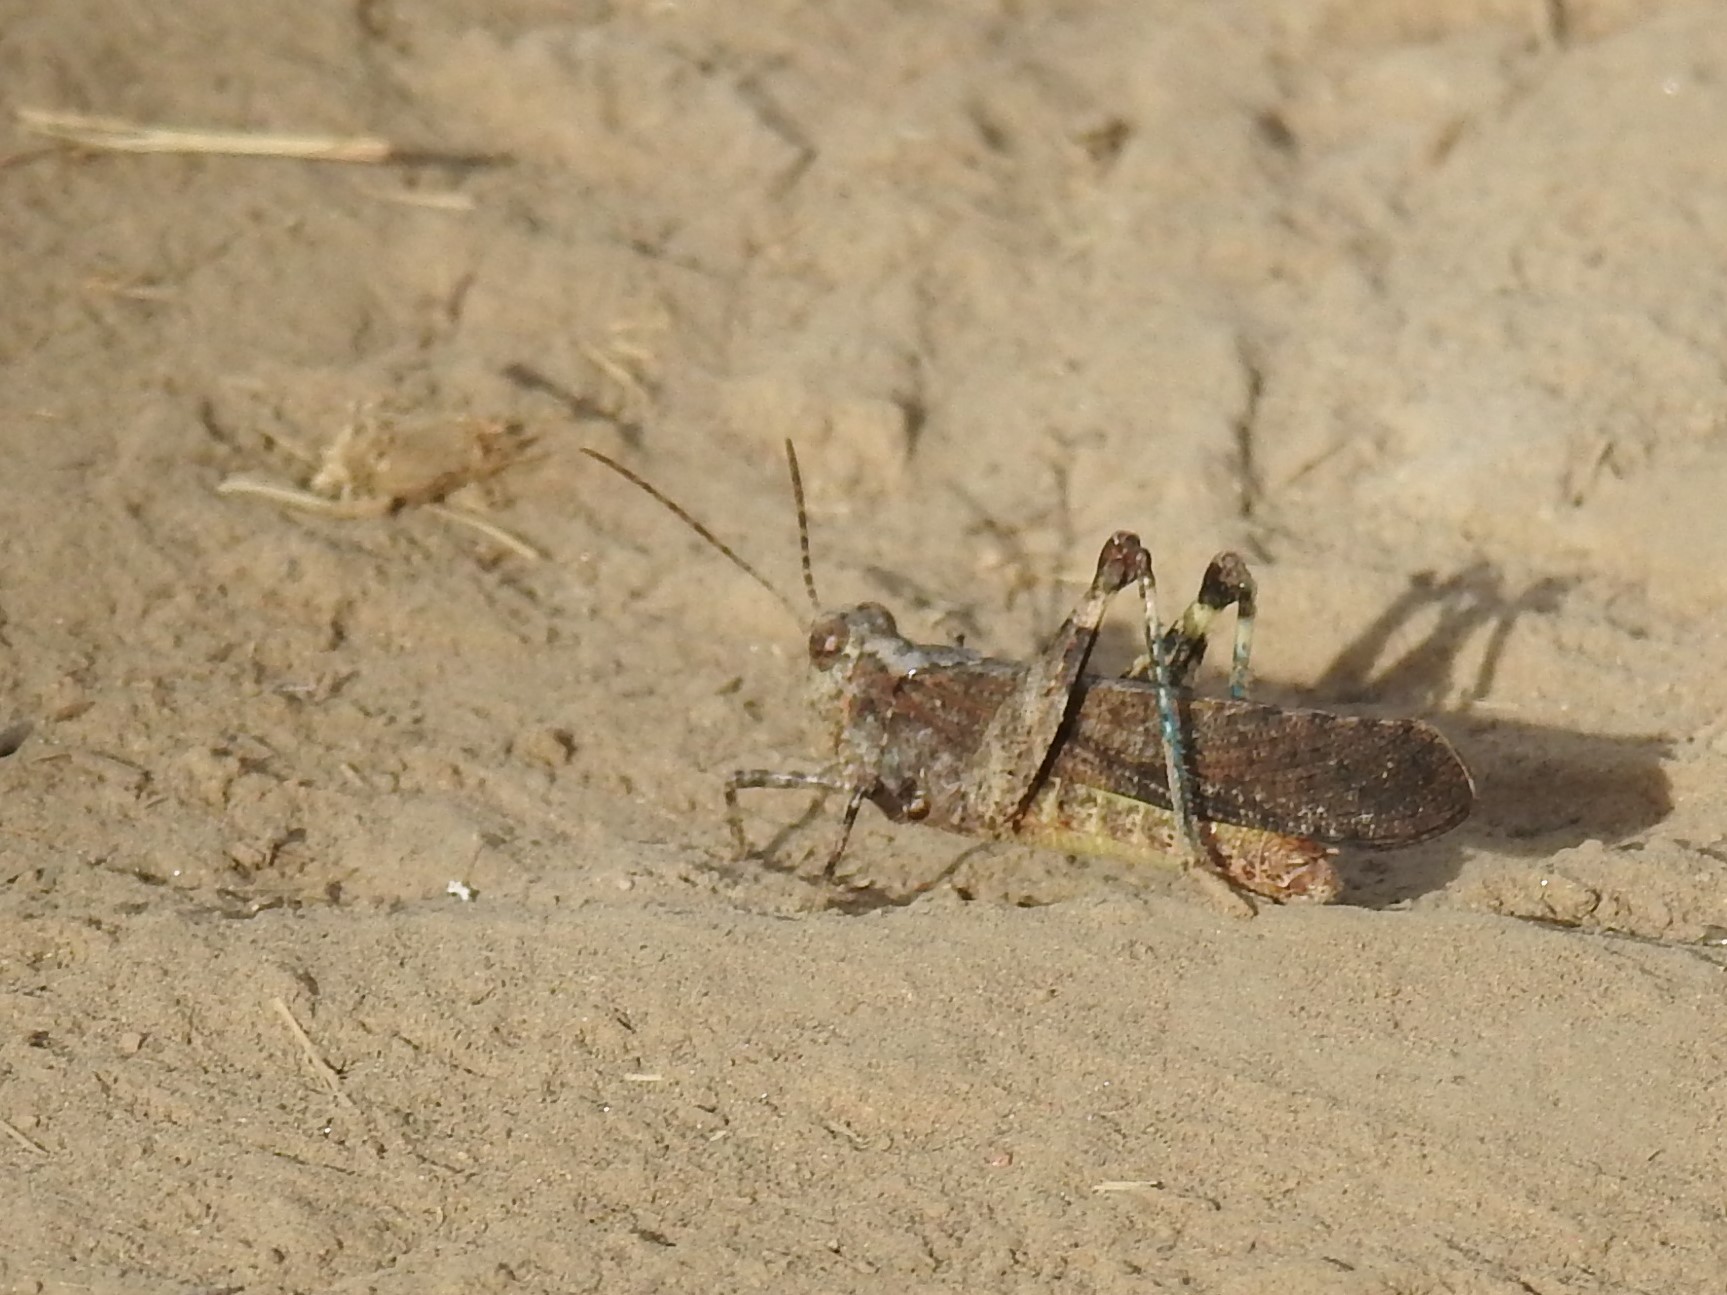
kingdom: Animalia
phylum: Arthropoda
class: Insecta
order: Orthoptera
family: Acrididae
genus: Trimerotropis
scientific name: Trimerotropis verruculata
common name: Crackling forest grasshopper
